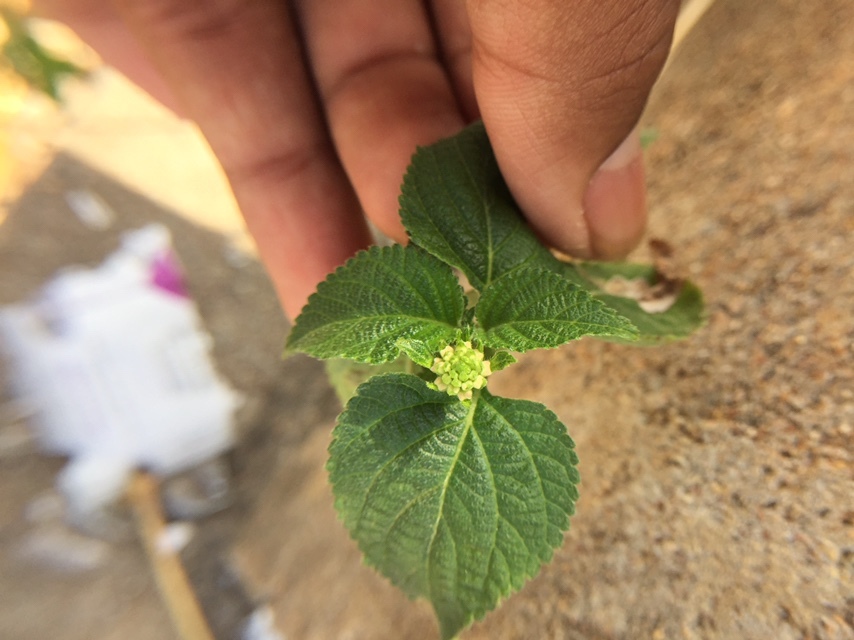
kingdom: Plantae
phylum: Tracheophyta
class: Magnoliopsida
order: Lamiales
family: Verbenaceae
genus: Lantana
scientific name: Lantana camara
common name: Lantana
